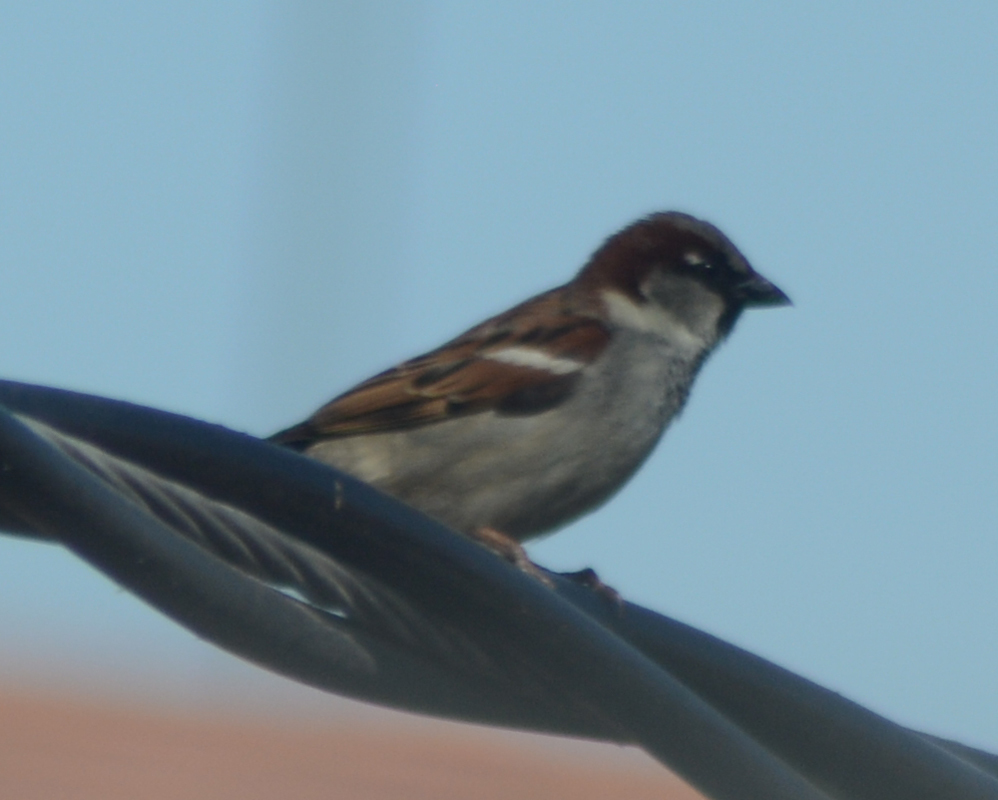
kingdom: Animalia
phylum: Chordata
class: Aves
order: Passeriformes
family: Passeridae
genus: Passer
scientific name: Passer domesticus
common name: House sparrow
